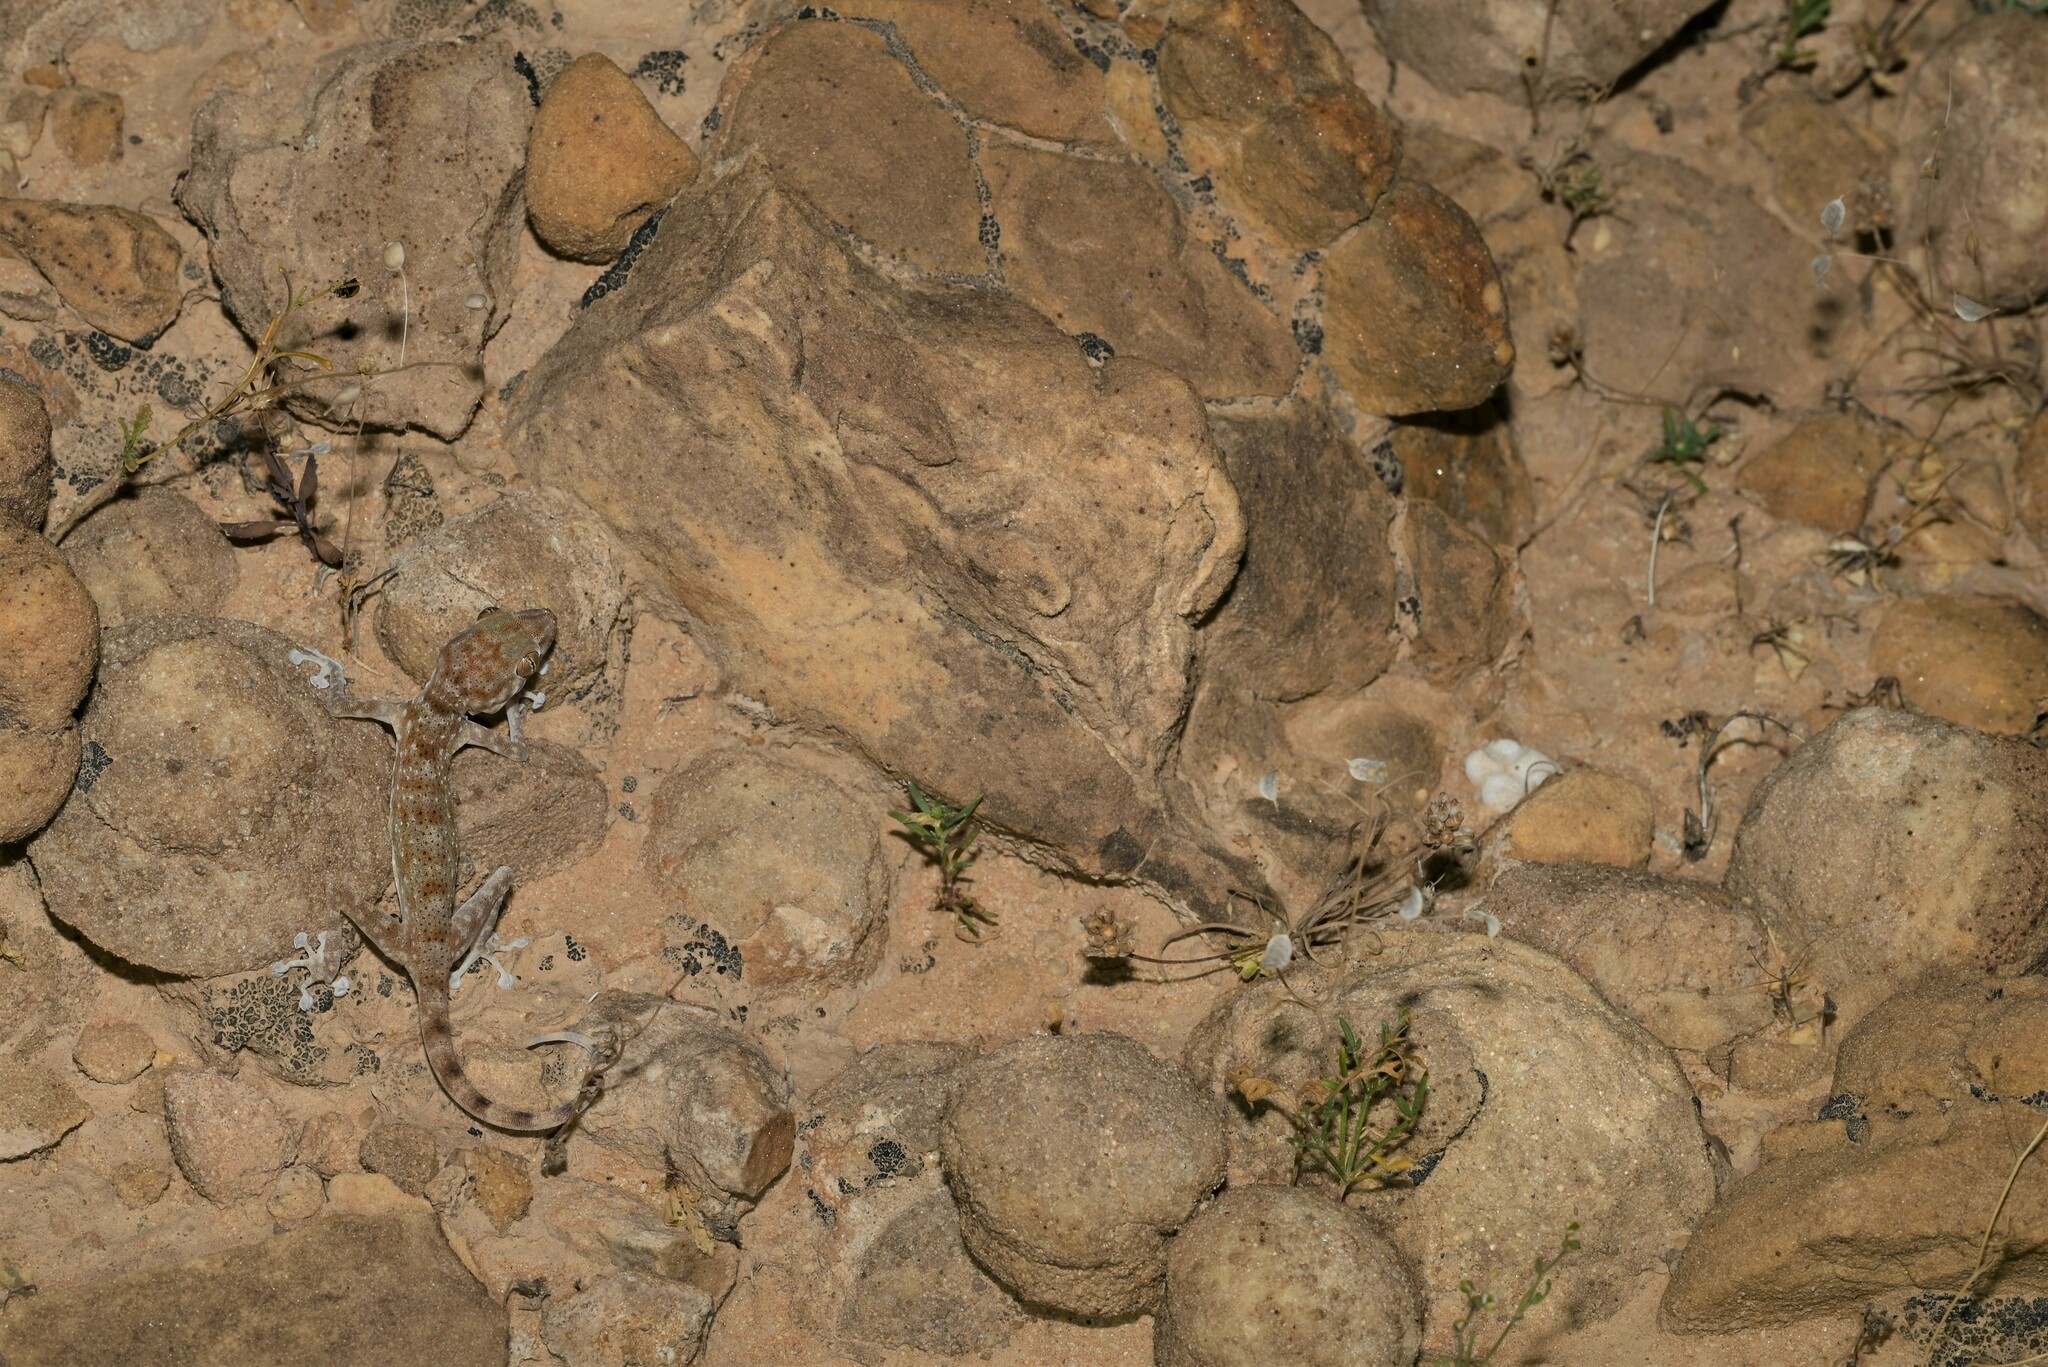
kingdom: Animalia
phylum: Chordata
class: Squamata
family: Phyllodactylidae
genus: Ptyodactylus
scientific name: Ptyodactylus hasselquistii
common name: Hasselquist’s fan-footed gecko
